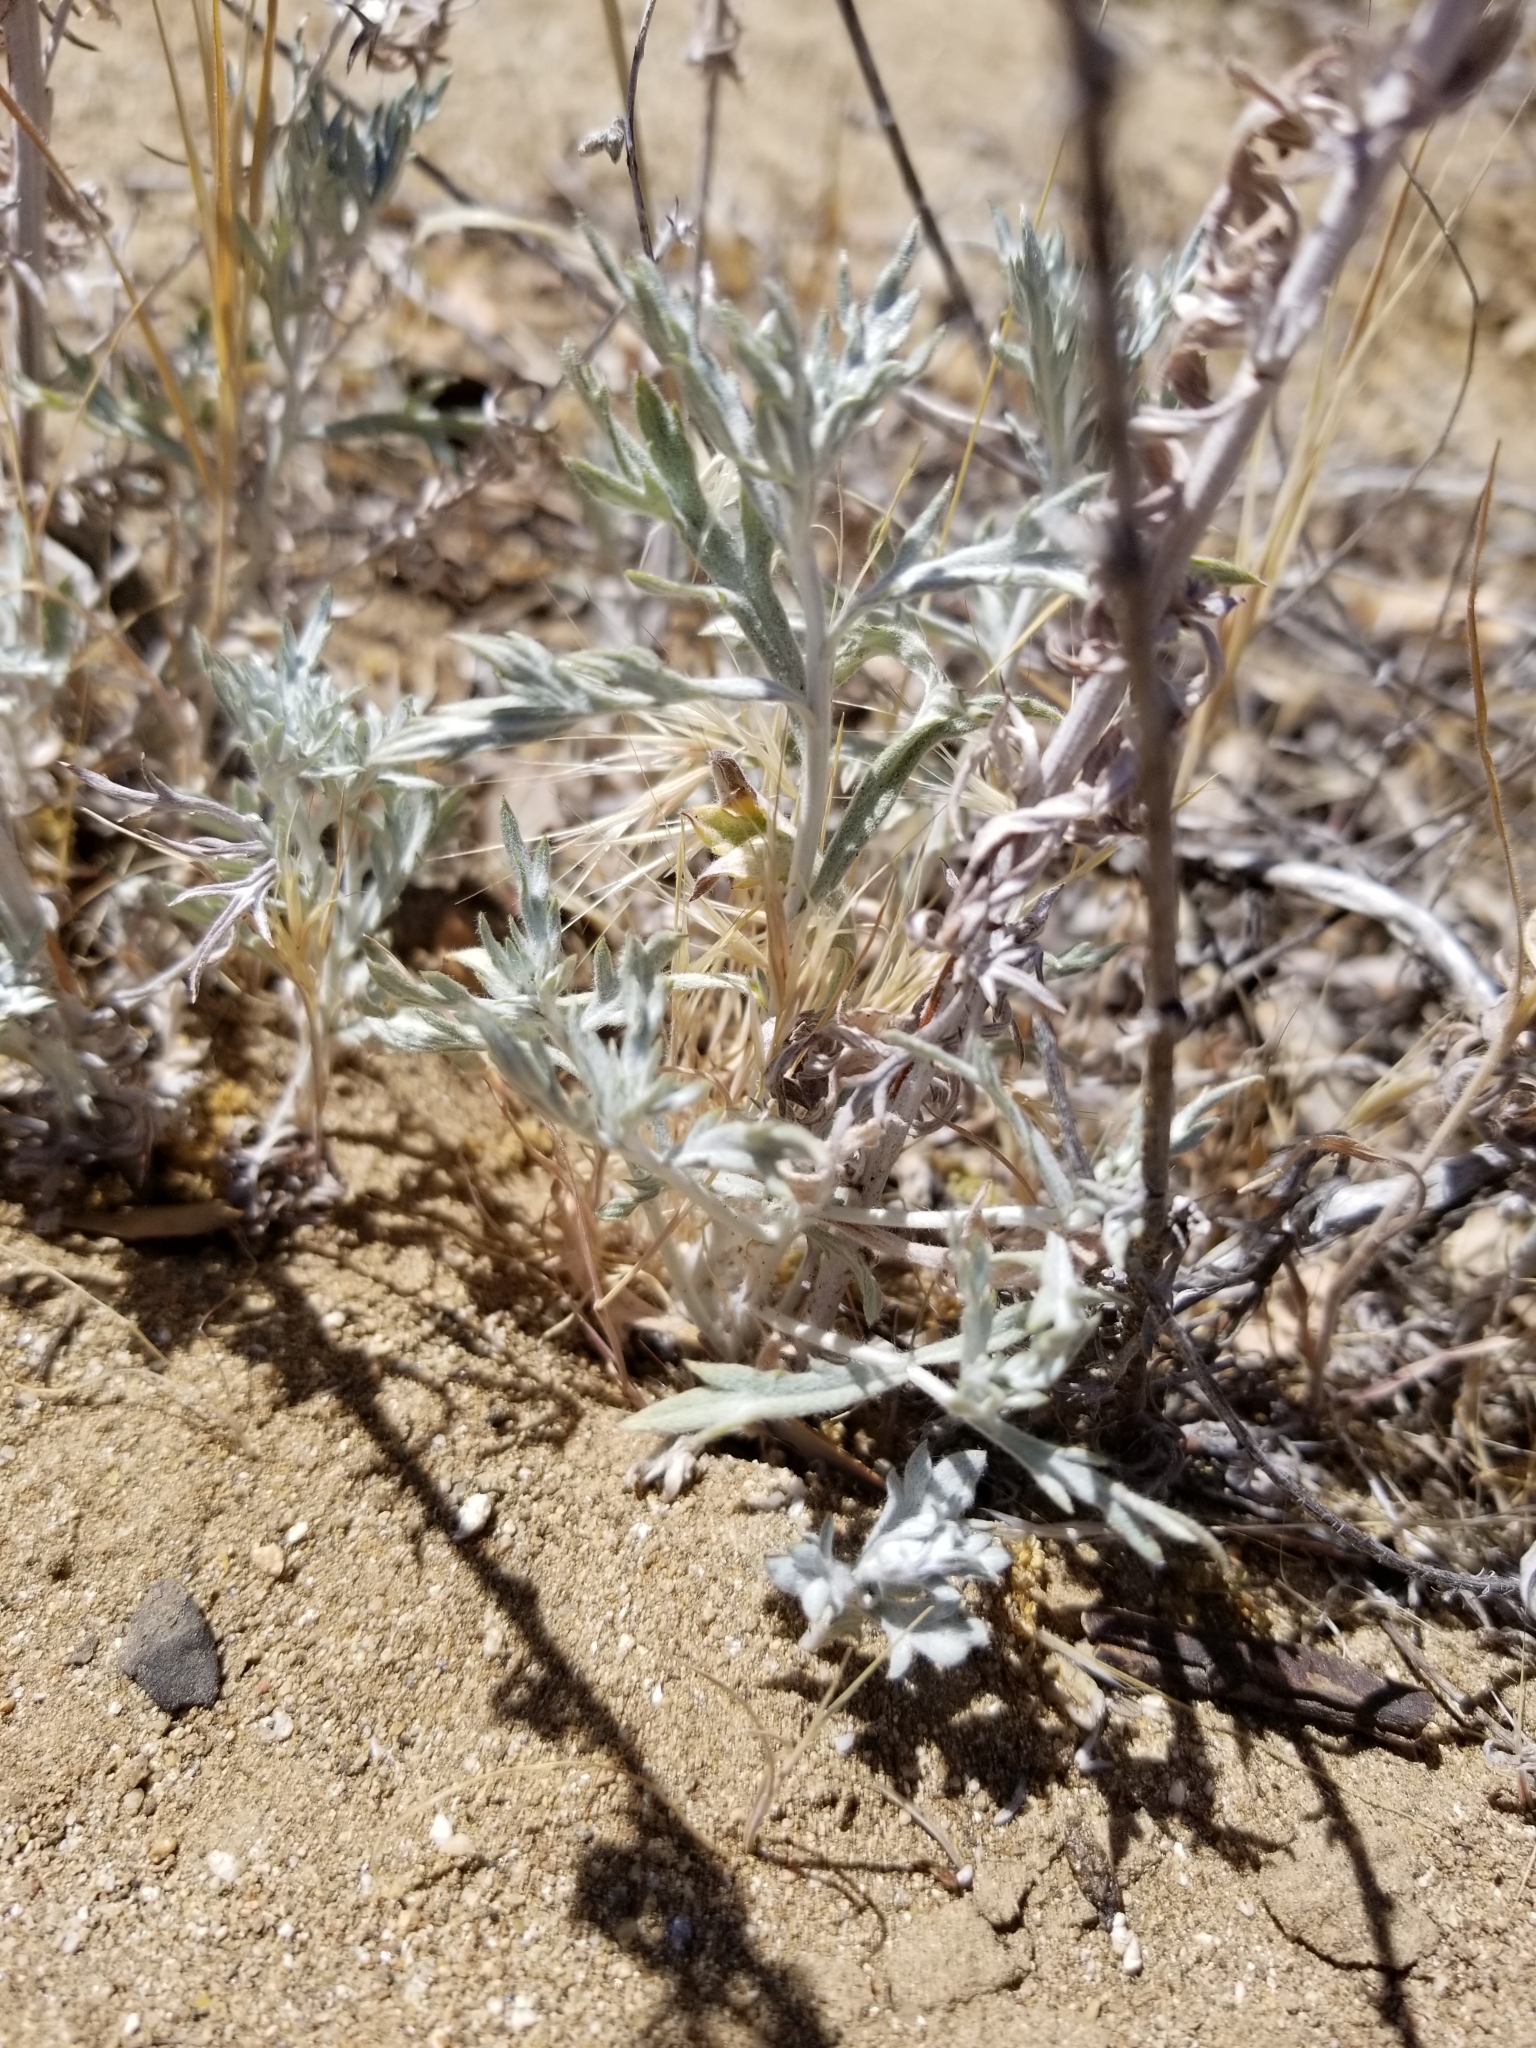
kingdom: Plantae
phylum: Tracheophyta
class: Magnoliopsida
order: Asterales
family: Asteraceae
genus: Artemisia
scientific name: Artemisia ludoviciana
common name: Western mugwort
